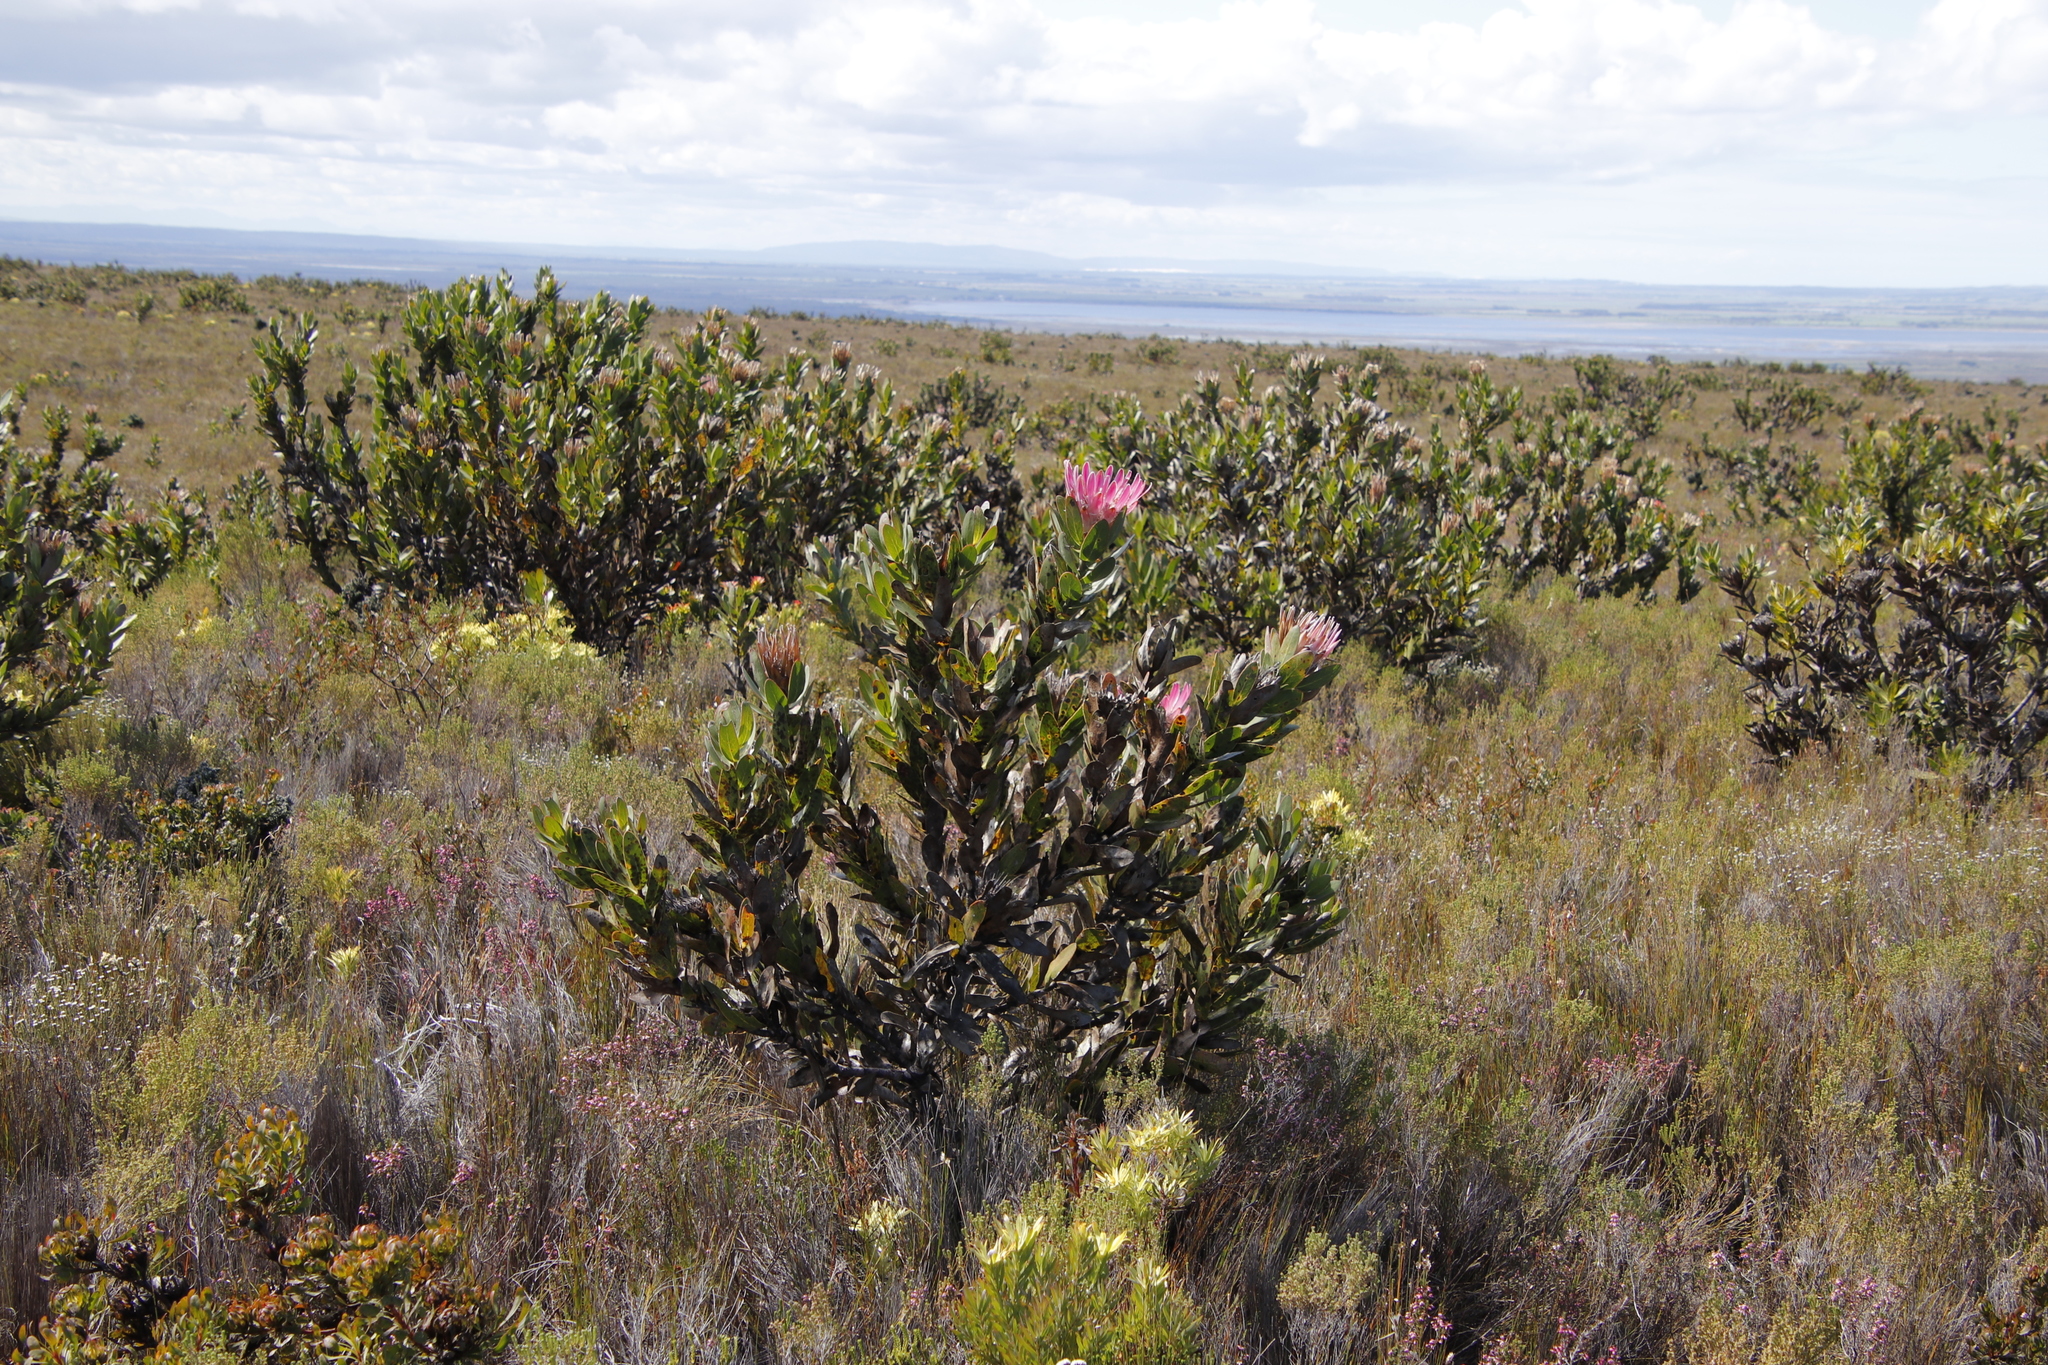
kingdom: Plantae
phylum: Tracheophyta
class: Magnoliopsida
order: Proteales
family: Proteaceae
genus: Protea
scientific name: Protea compacta
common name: Bot river protea
